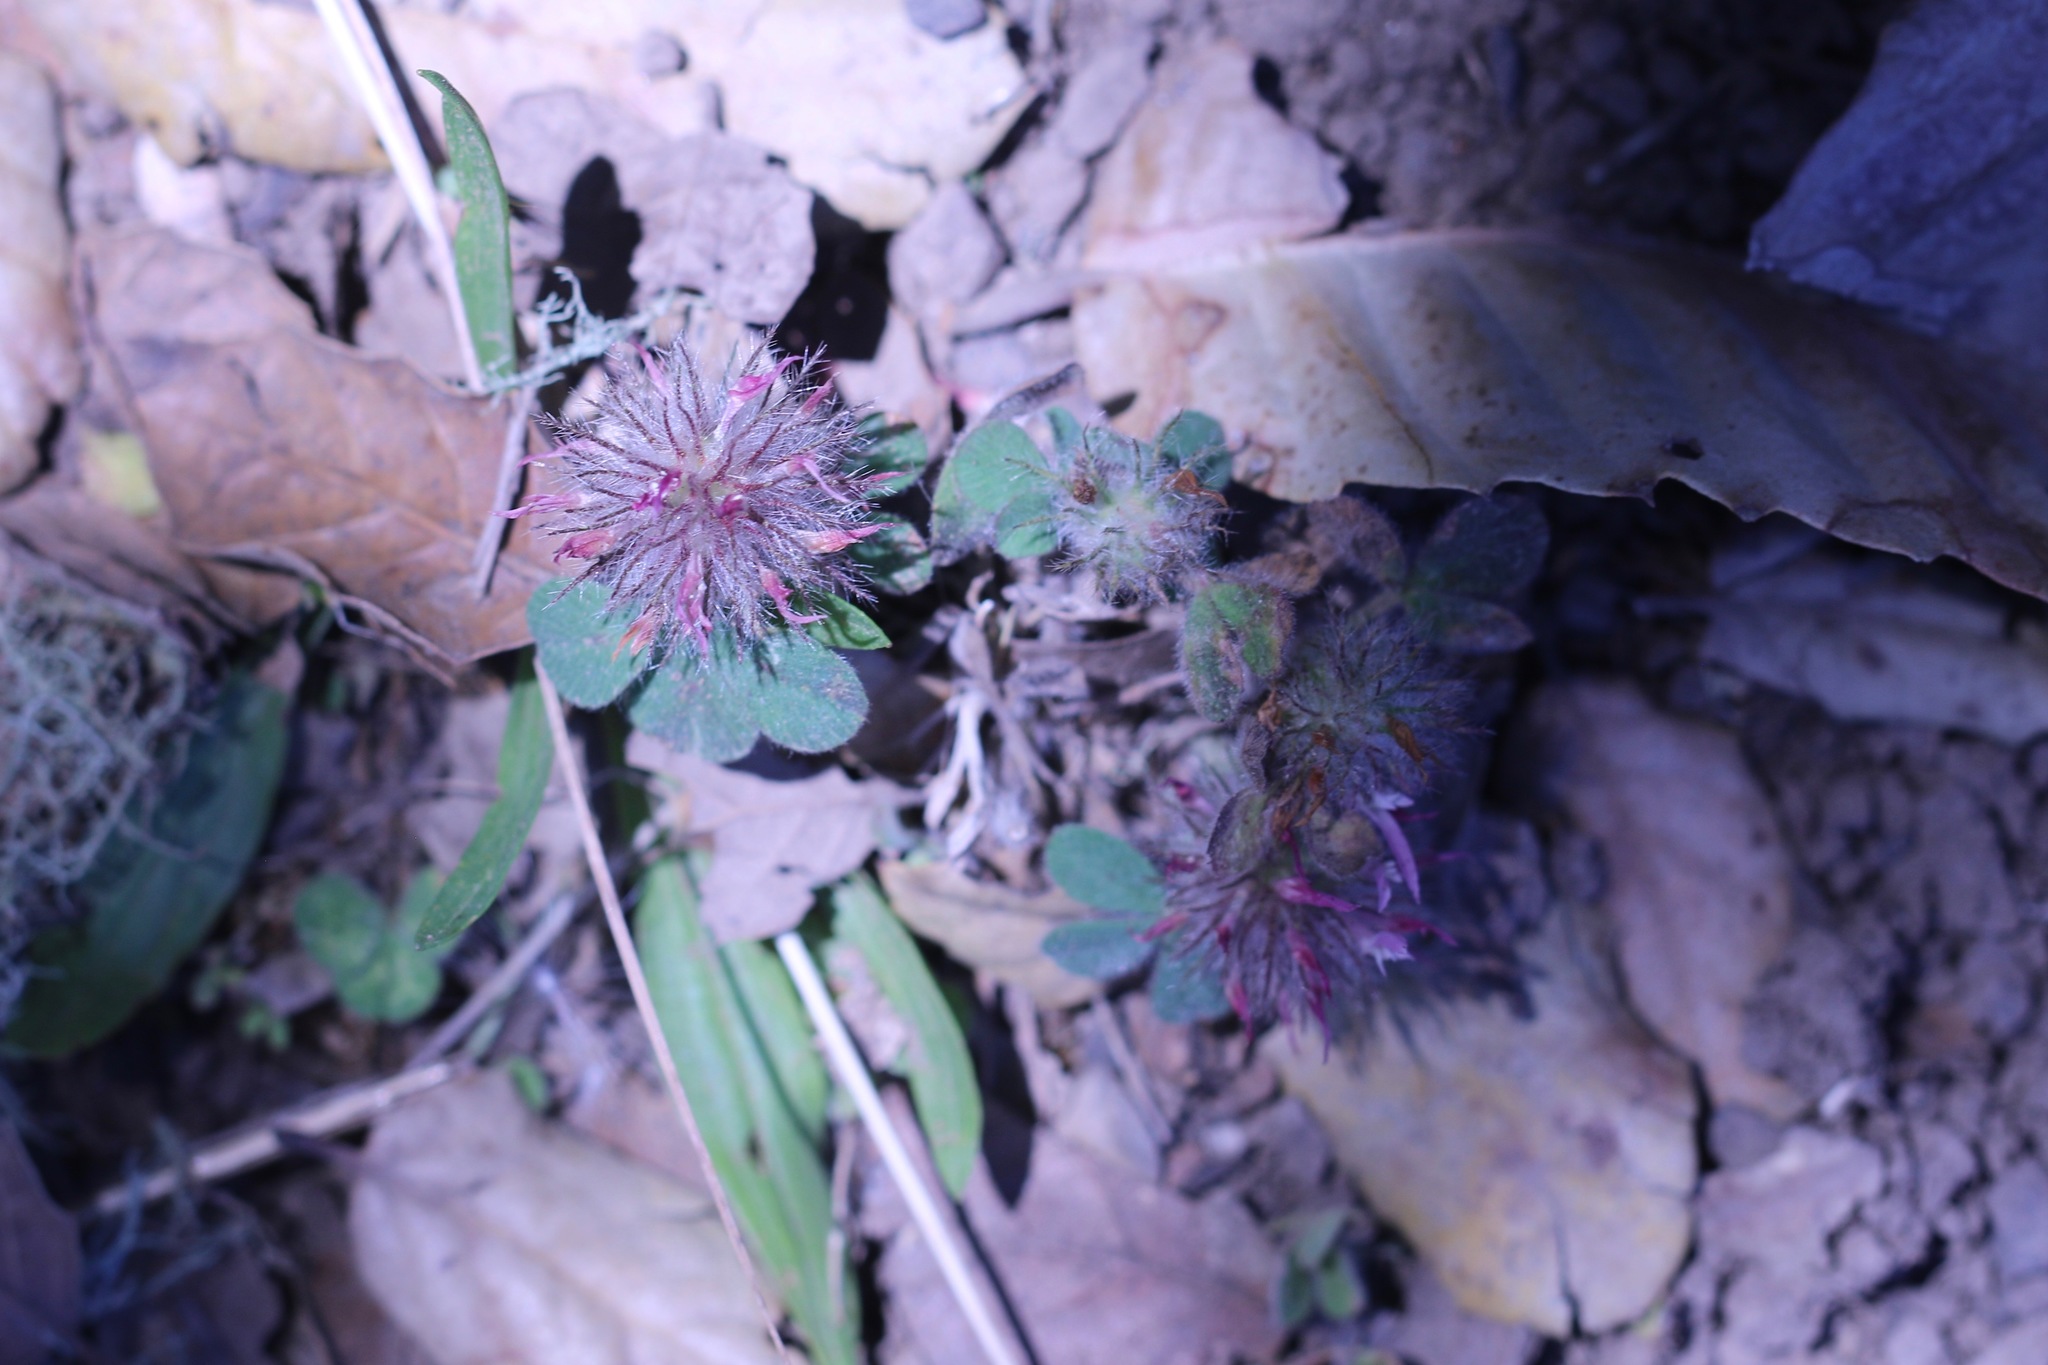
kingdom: Plantae
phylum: Tracheophyta
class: Magnoliopsida
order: Fabales
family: Fabaceae
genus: Trifolium
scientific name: Trifolium hirtum
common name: Rose clover
